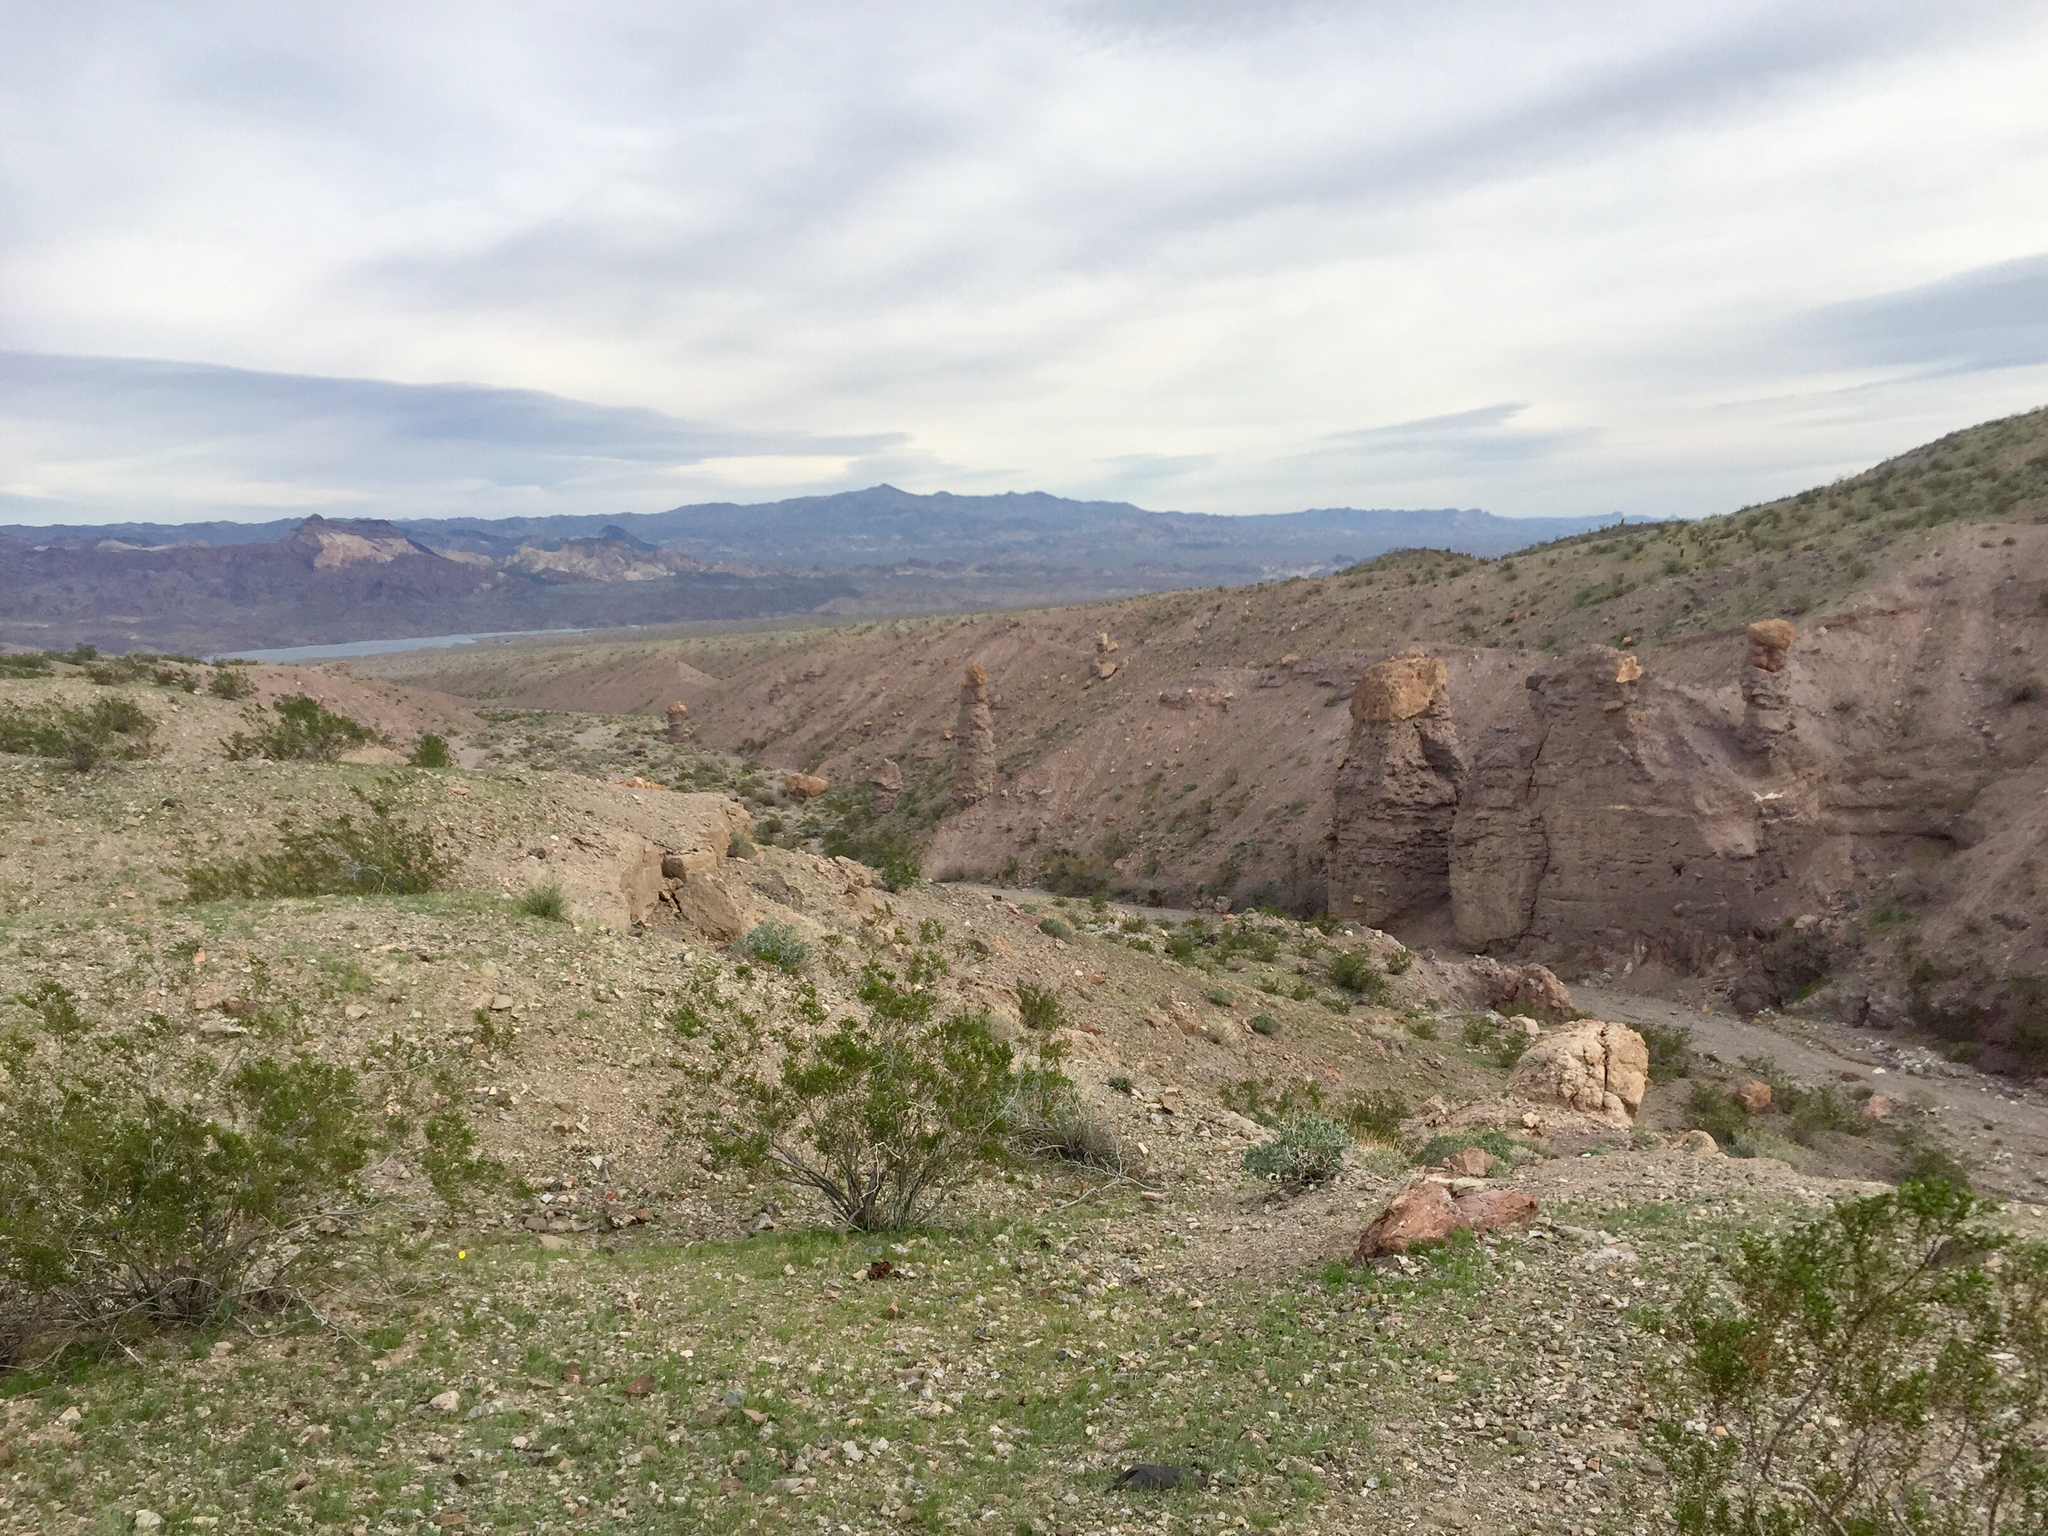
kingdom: Plantae
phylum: Tracheophyta
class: Magnoliopsida
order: Zygophyllales
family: Zygophyllaceae
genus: Larrea
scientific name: Larrea tridentata
